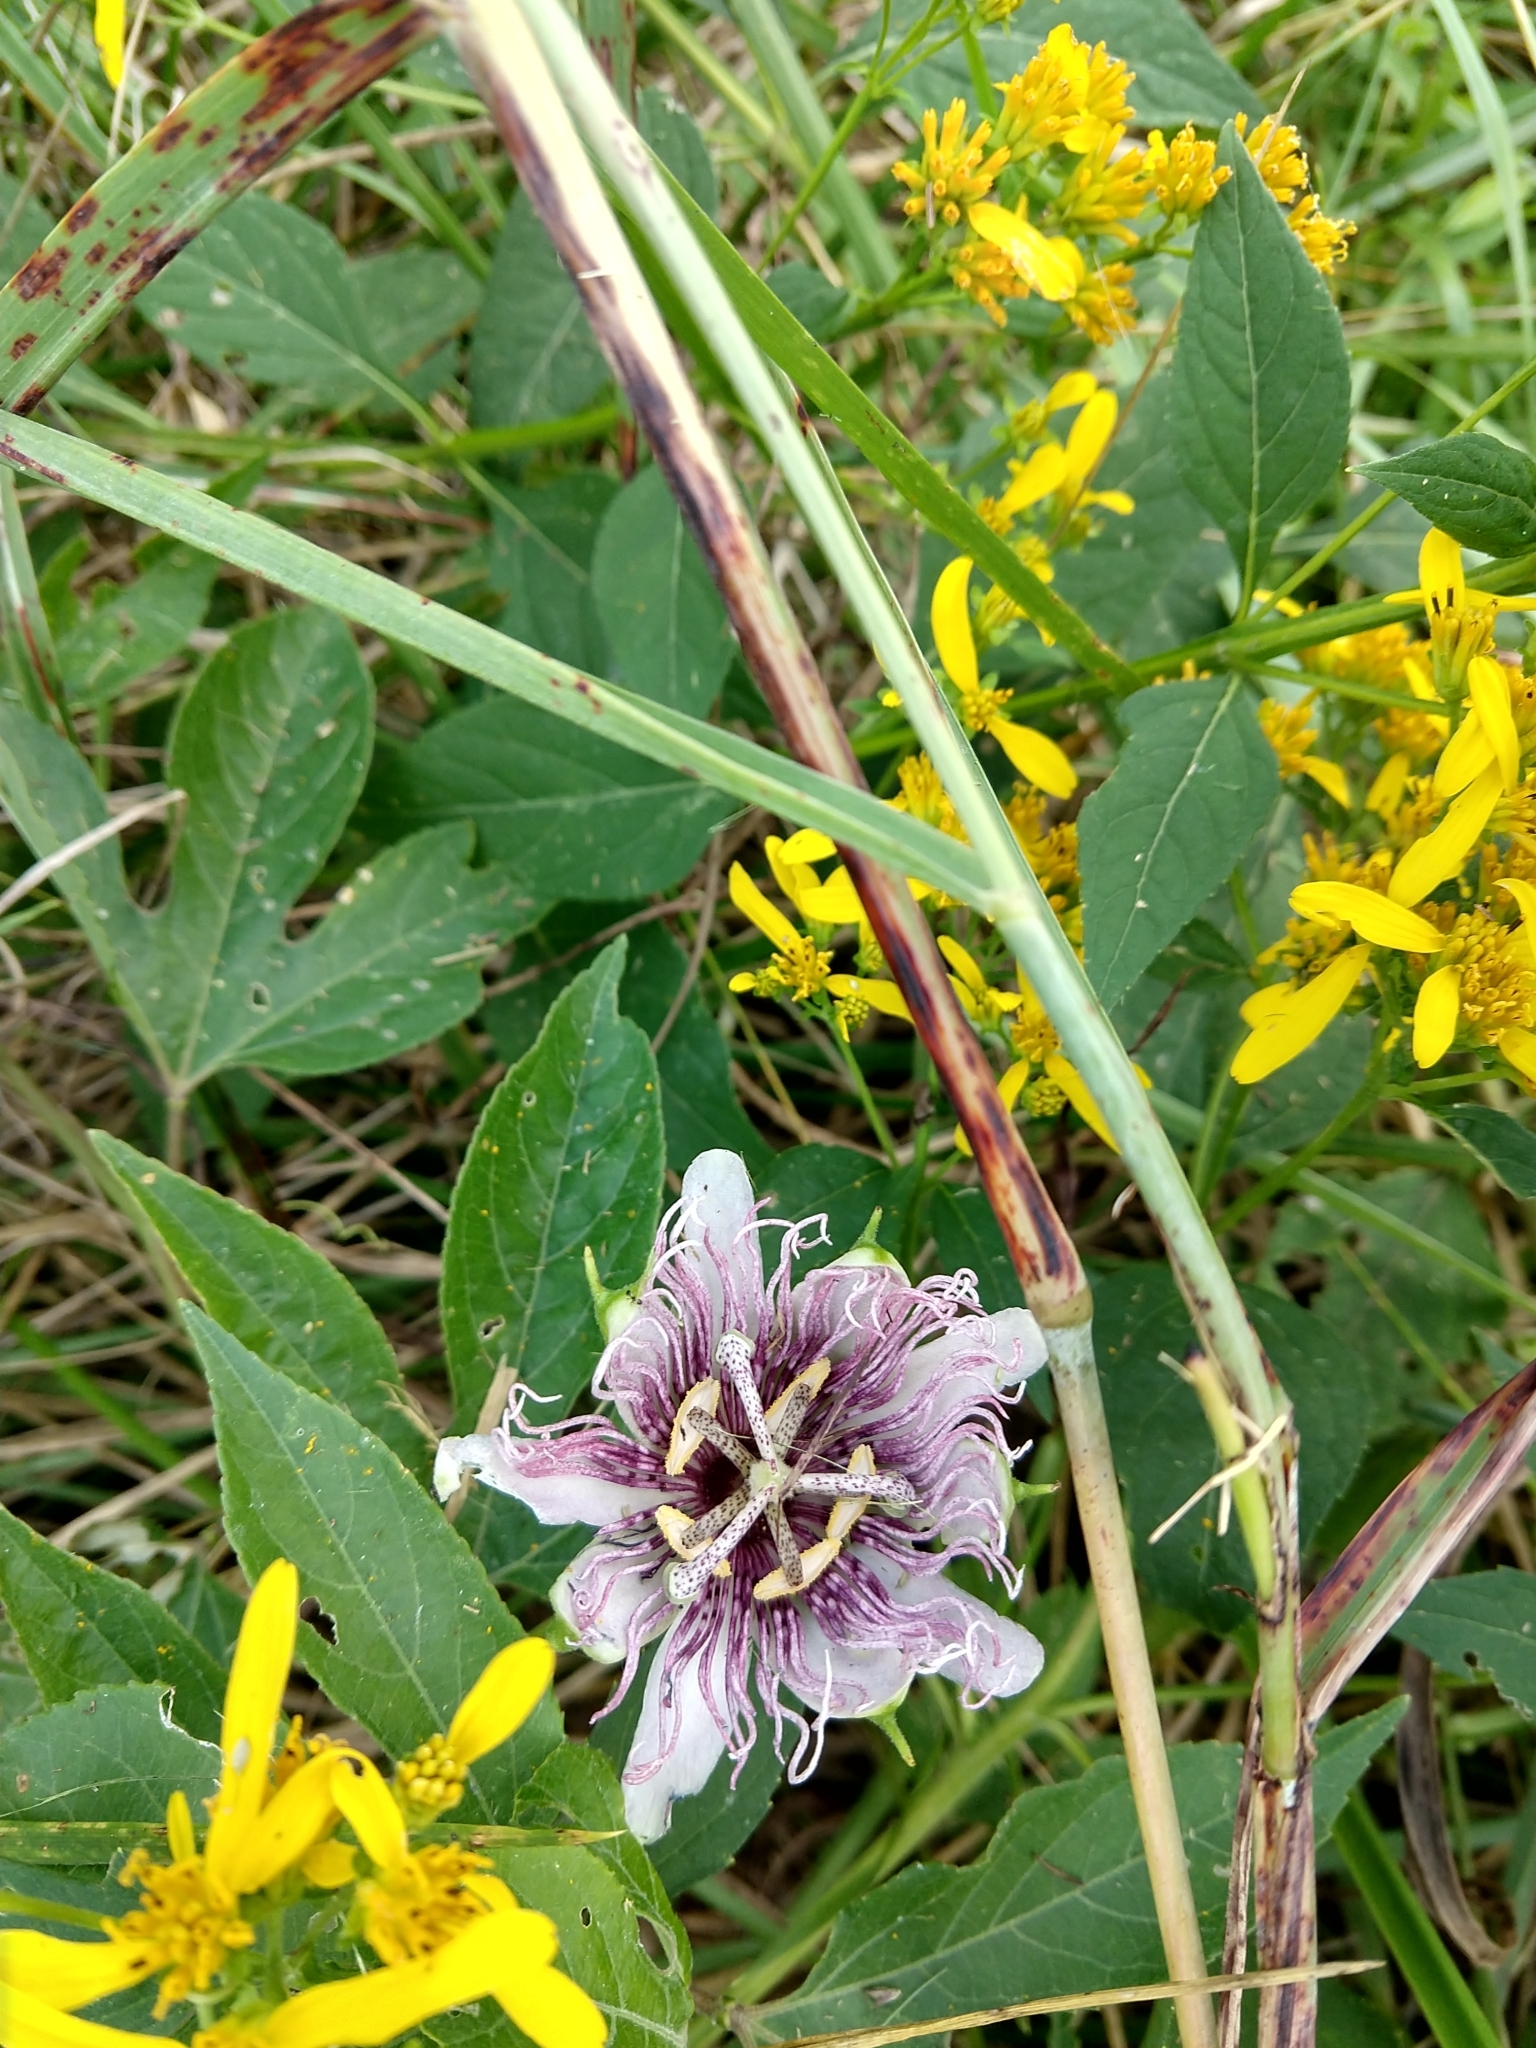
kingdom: Plantae
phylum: Tracheophyta
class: Magnoliopsida
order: Malpighiales
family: Passifloraceae
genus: Passiflora
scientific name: Passiflora incarnata
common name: Apricot-vine
